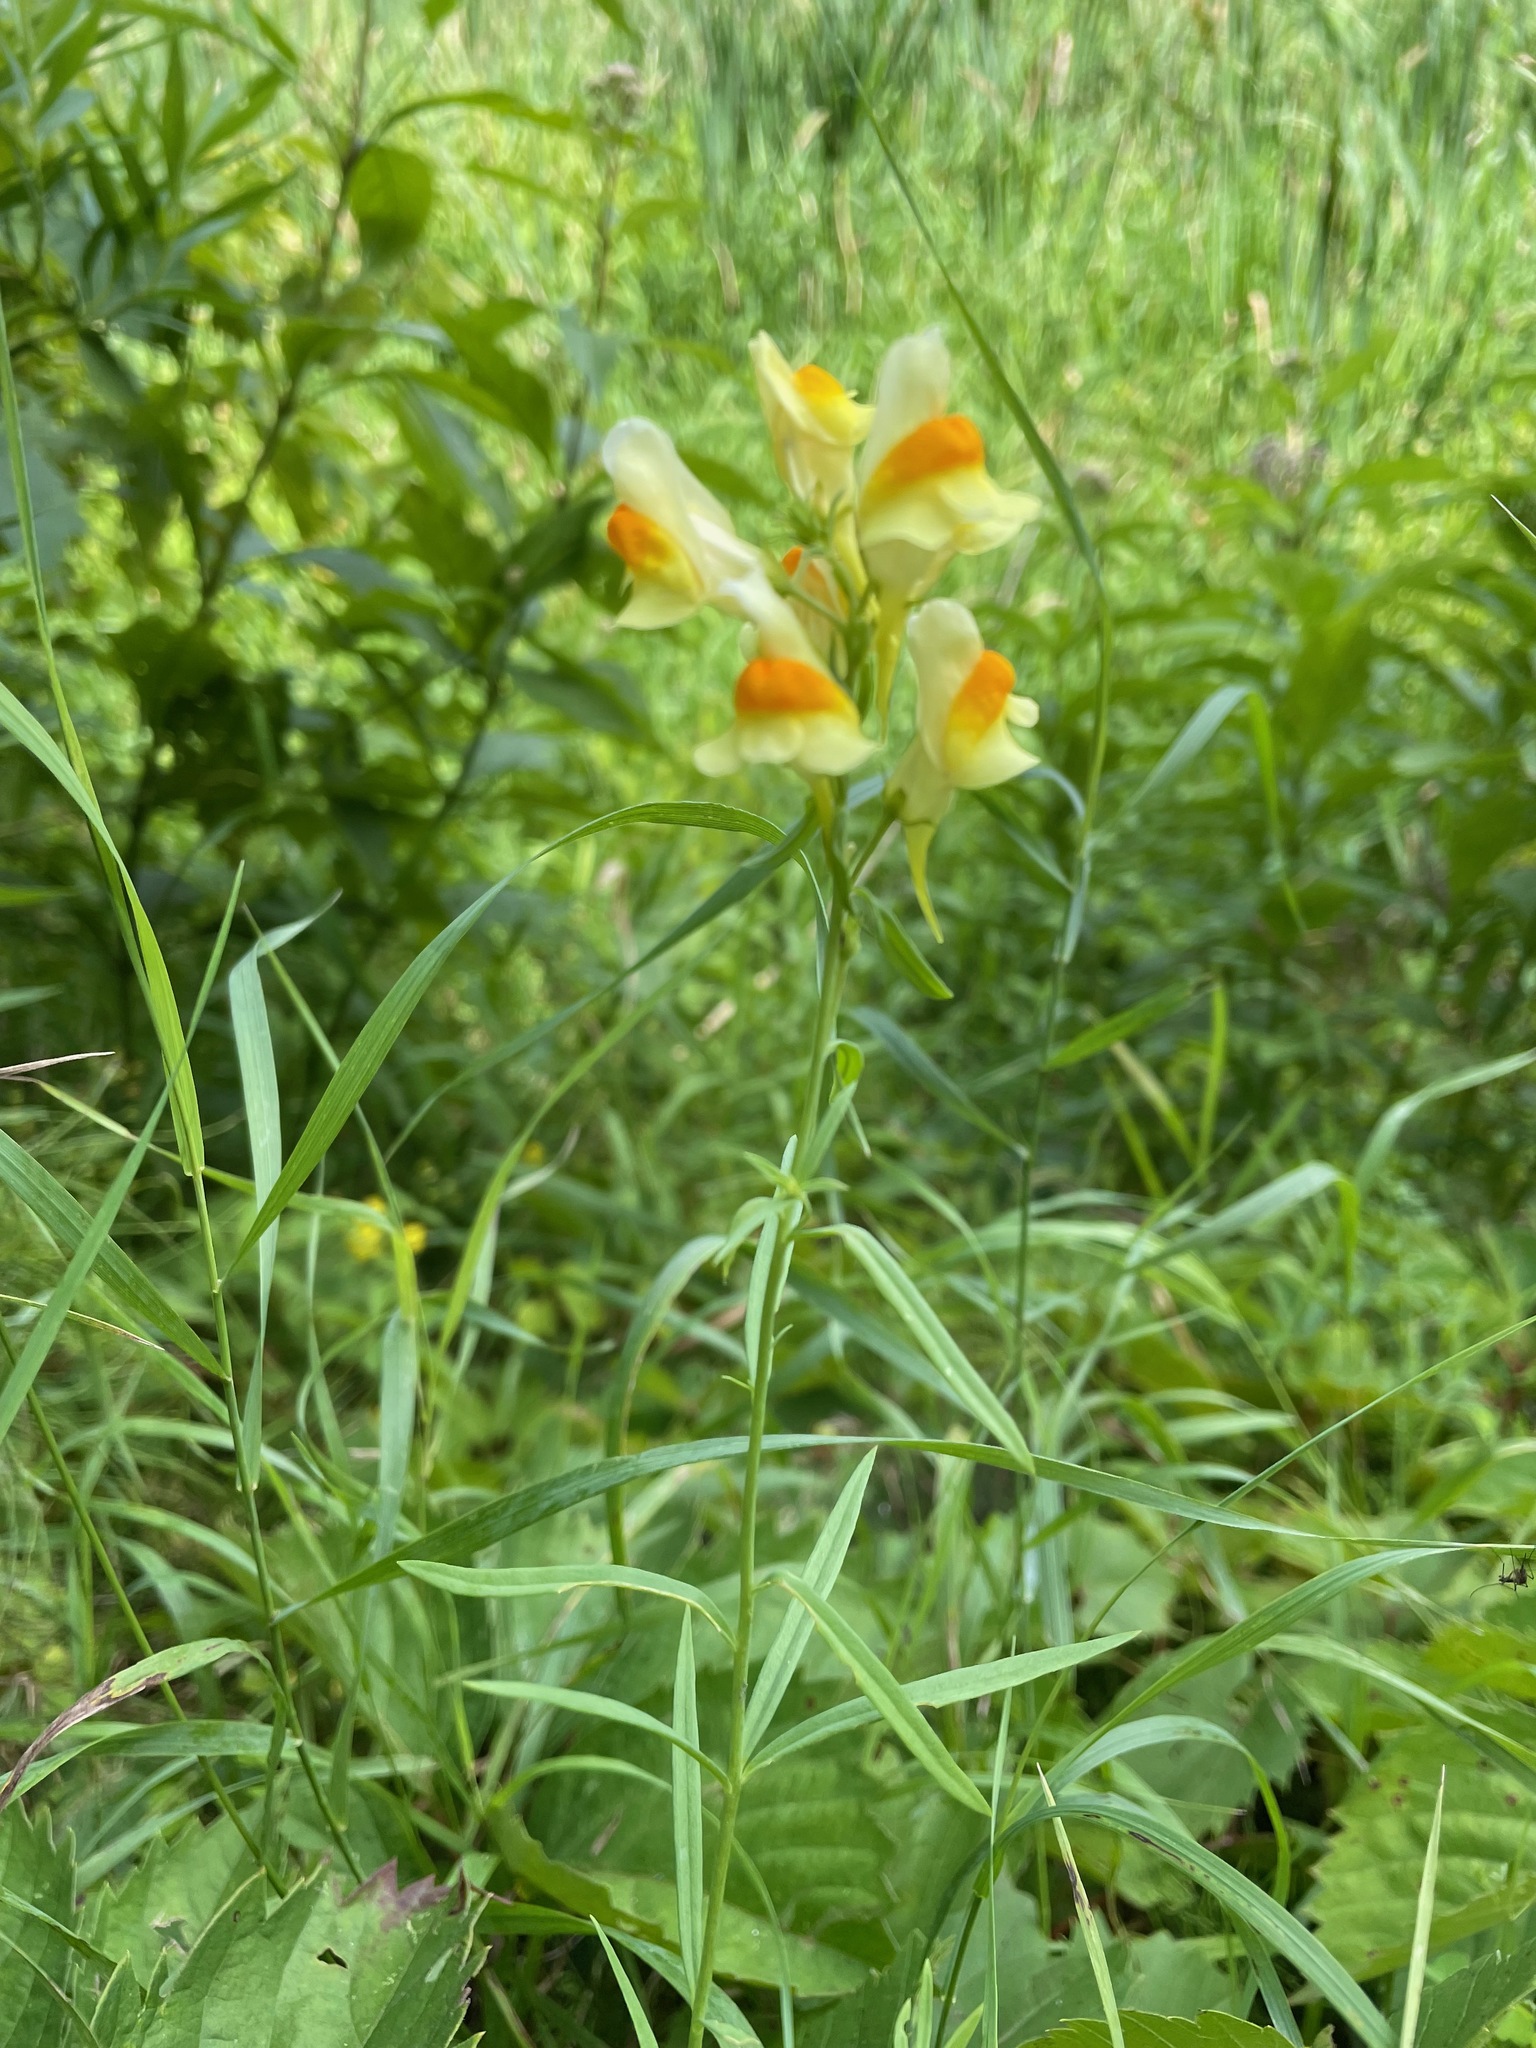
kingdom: Plantae
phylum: Tracheophyta
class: Magnoliopsida
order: Lamiales
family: Plantaginaceae
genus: Linaria
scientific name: Linaria vulgaris
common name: Butter and eggs
